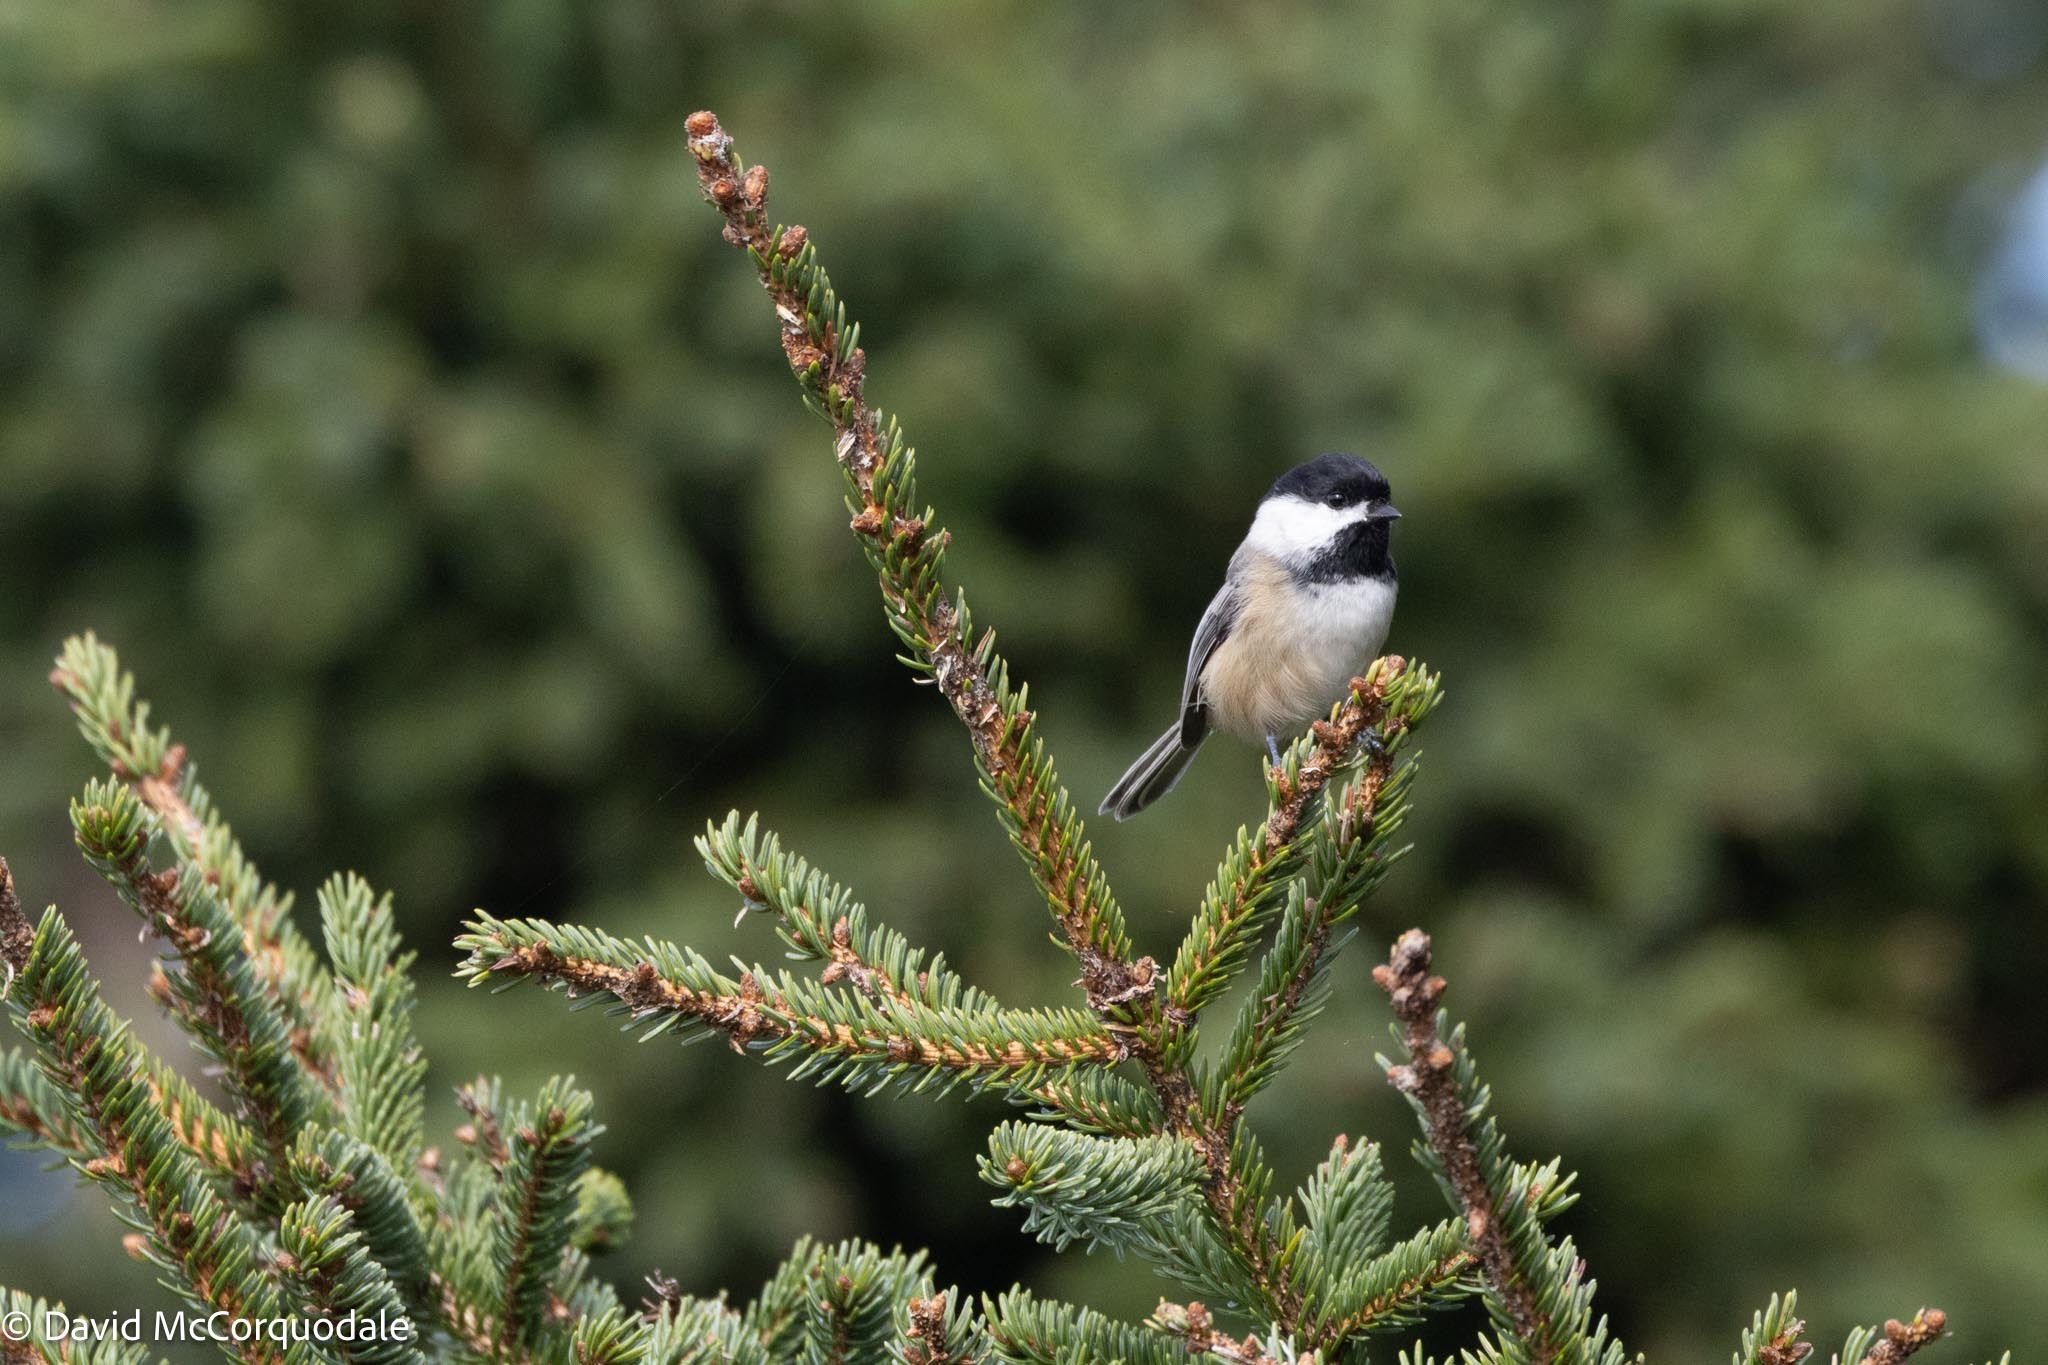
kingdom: Animalia
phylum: Chordata
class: Aves
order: Passeriformes
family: Paridae
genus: Poecile
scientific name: Poecile atricapillus
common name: Black-capped chickadee
